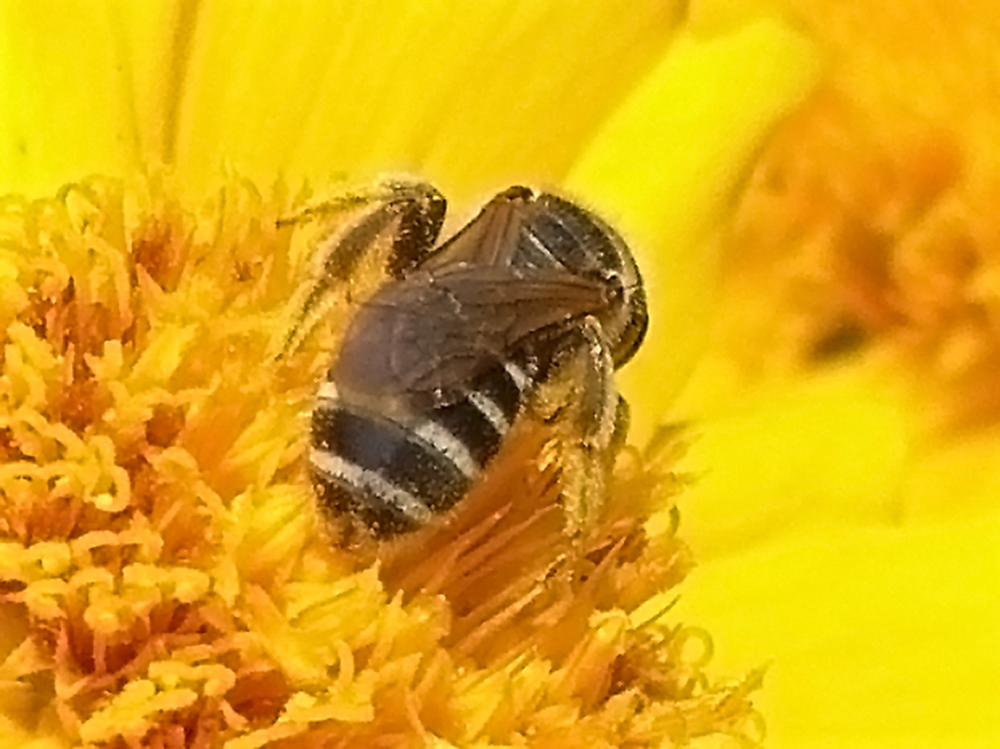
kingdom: Animalia
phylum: Arthropoda
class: Insecta
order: Hymenoptera
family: Halictidae
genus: Halictus
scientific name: Halictus ligatus
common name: Ligated furrow bee
